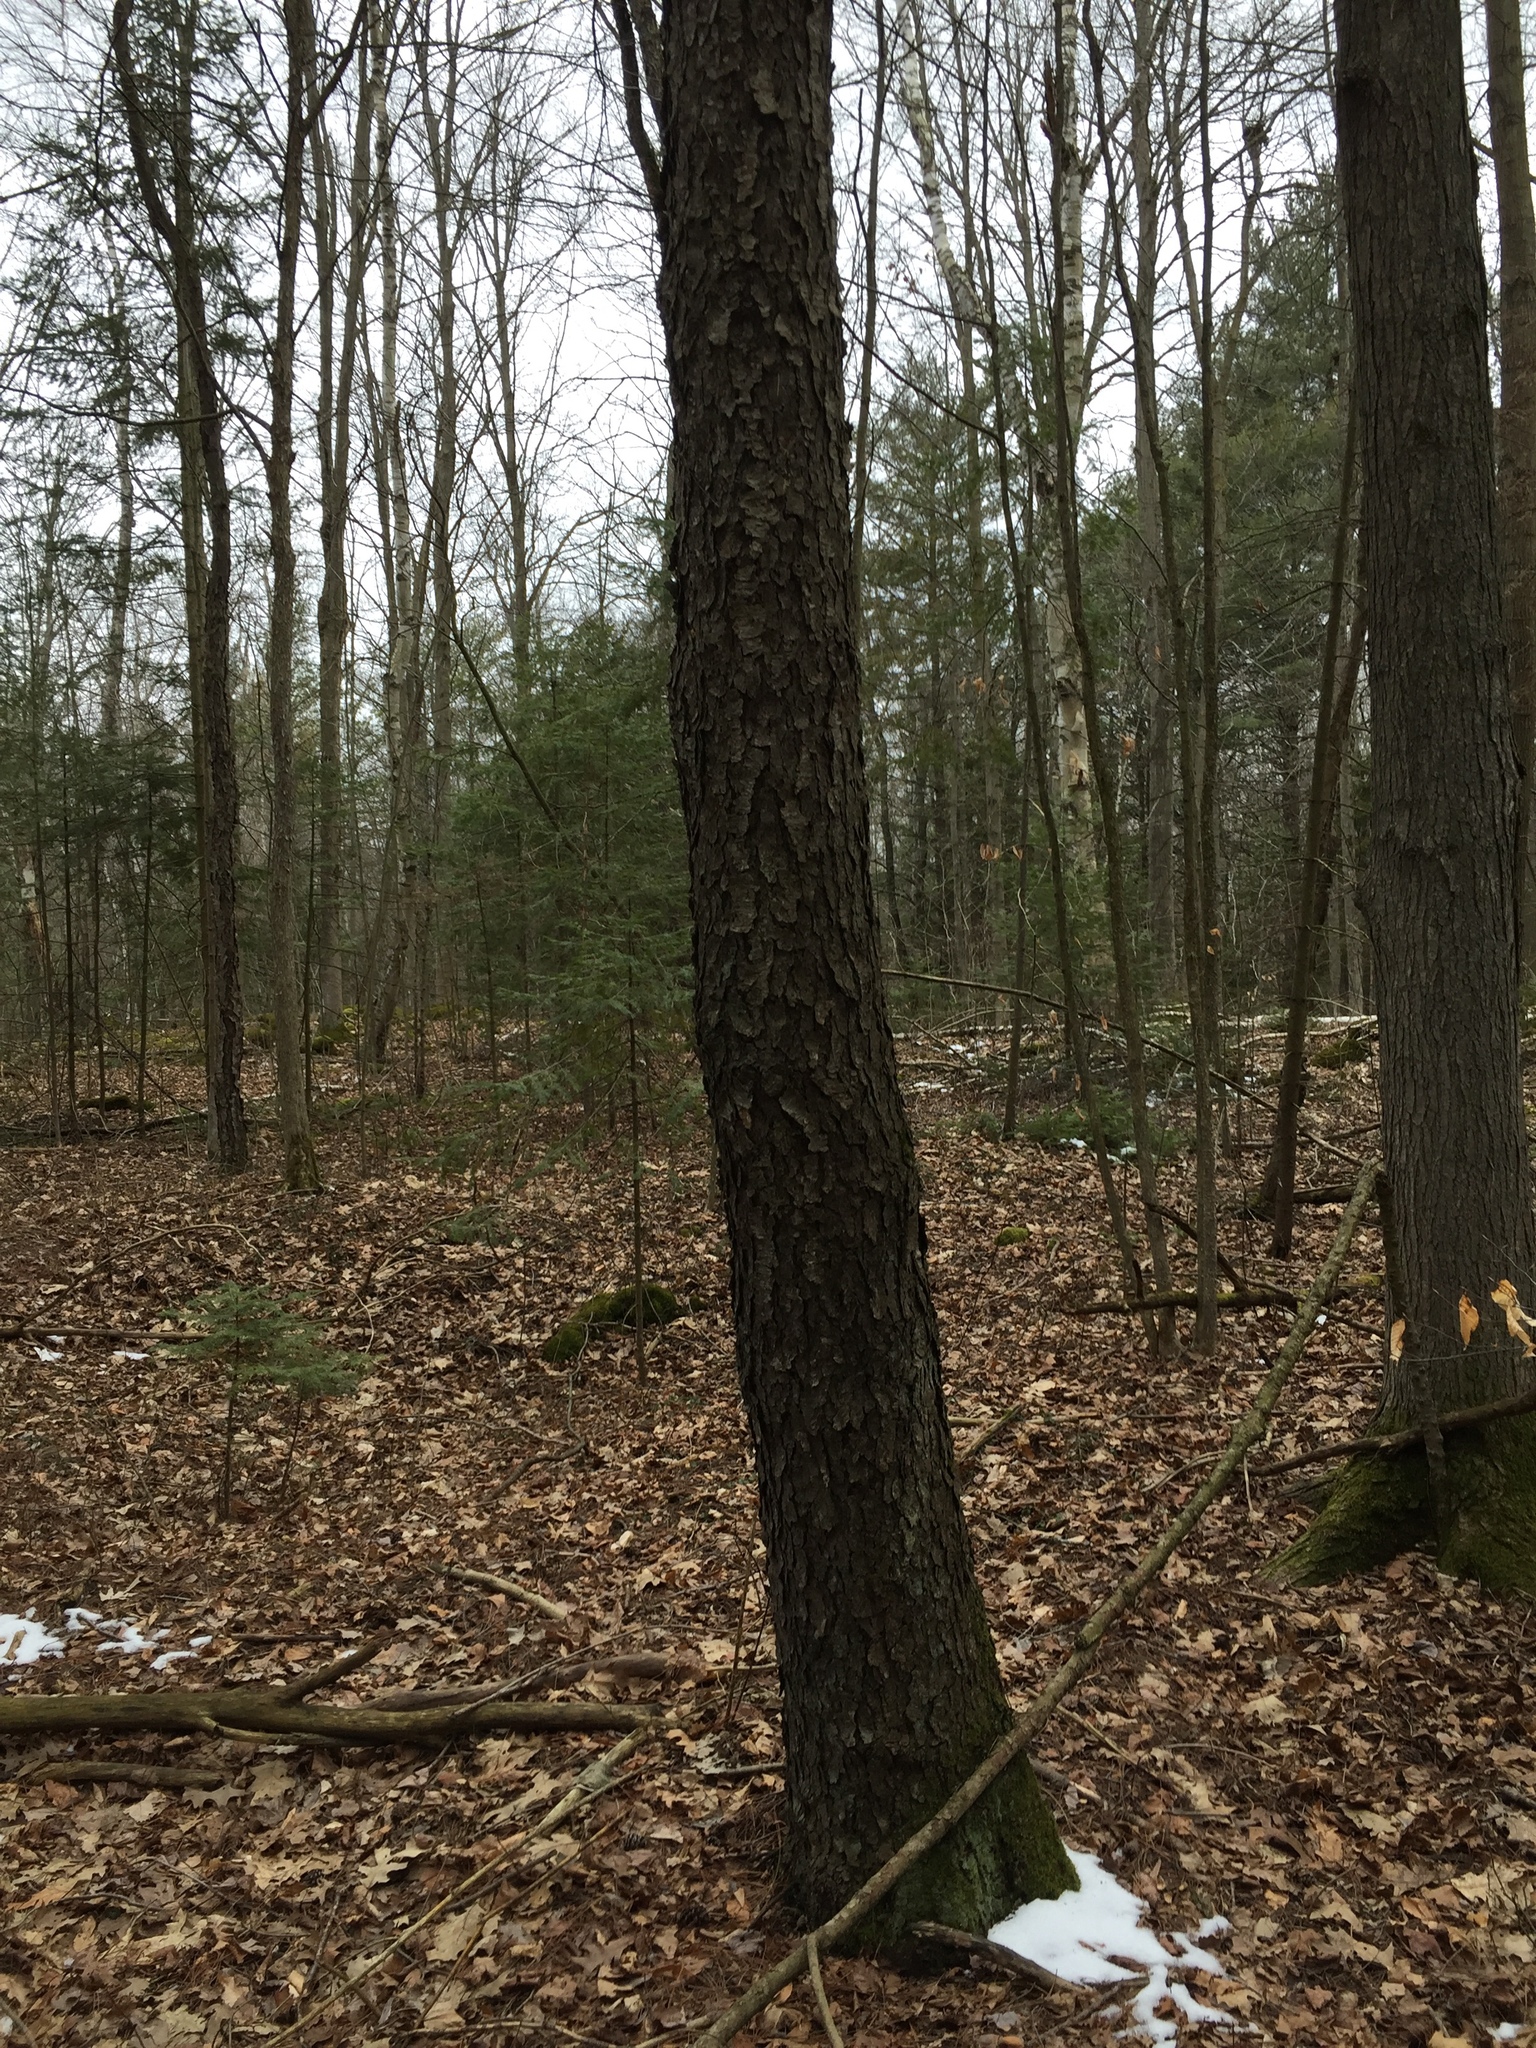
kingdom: Plantae
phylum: Tracheophyta
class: Magnoliopsida
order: Rosales
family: Rosaceae
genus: Prunus
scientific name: Prunus serotina
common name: Black cherry
